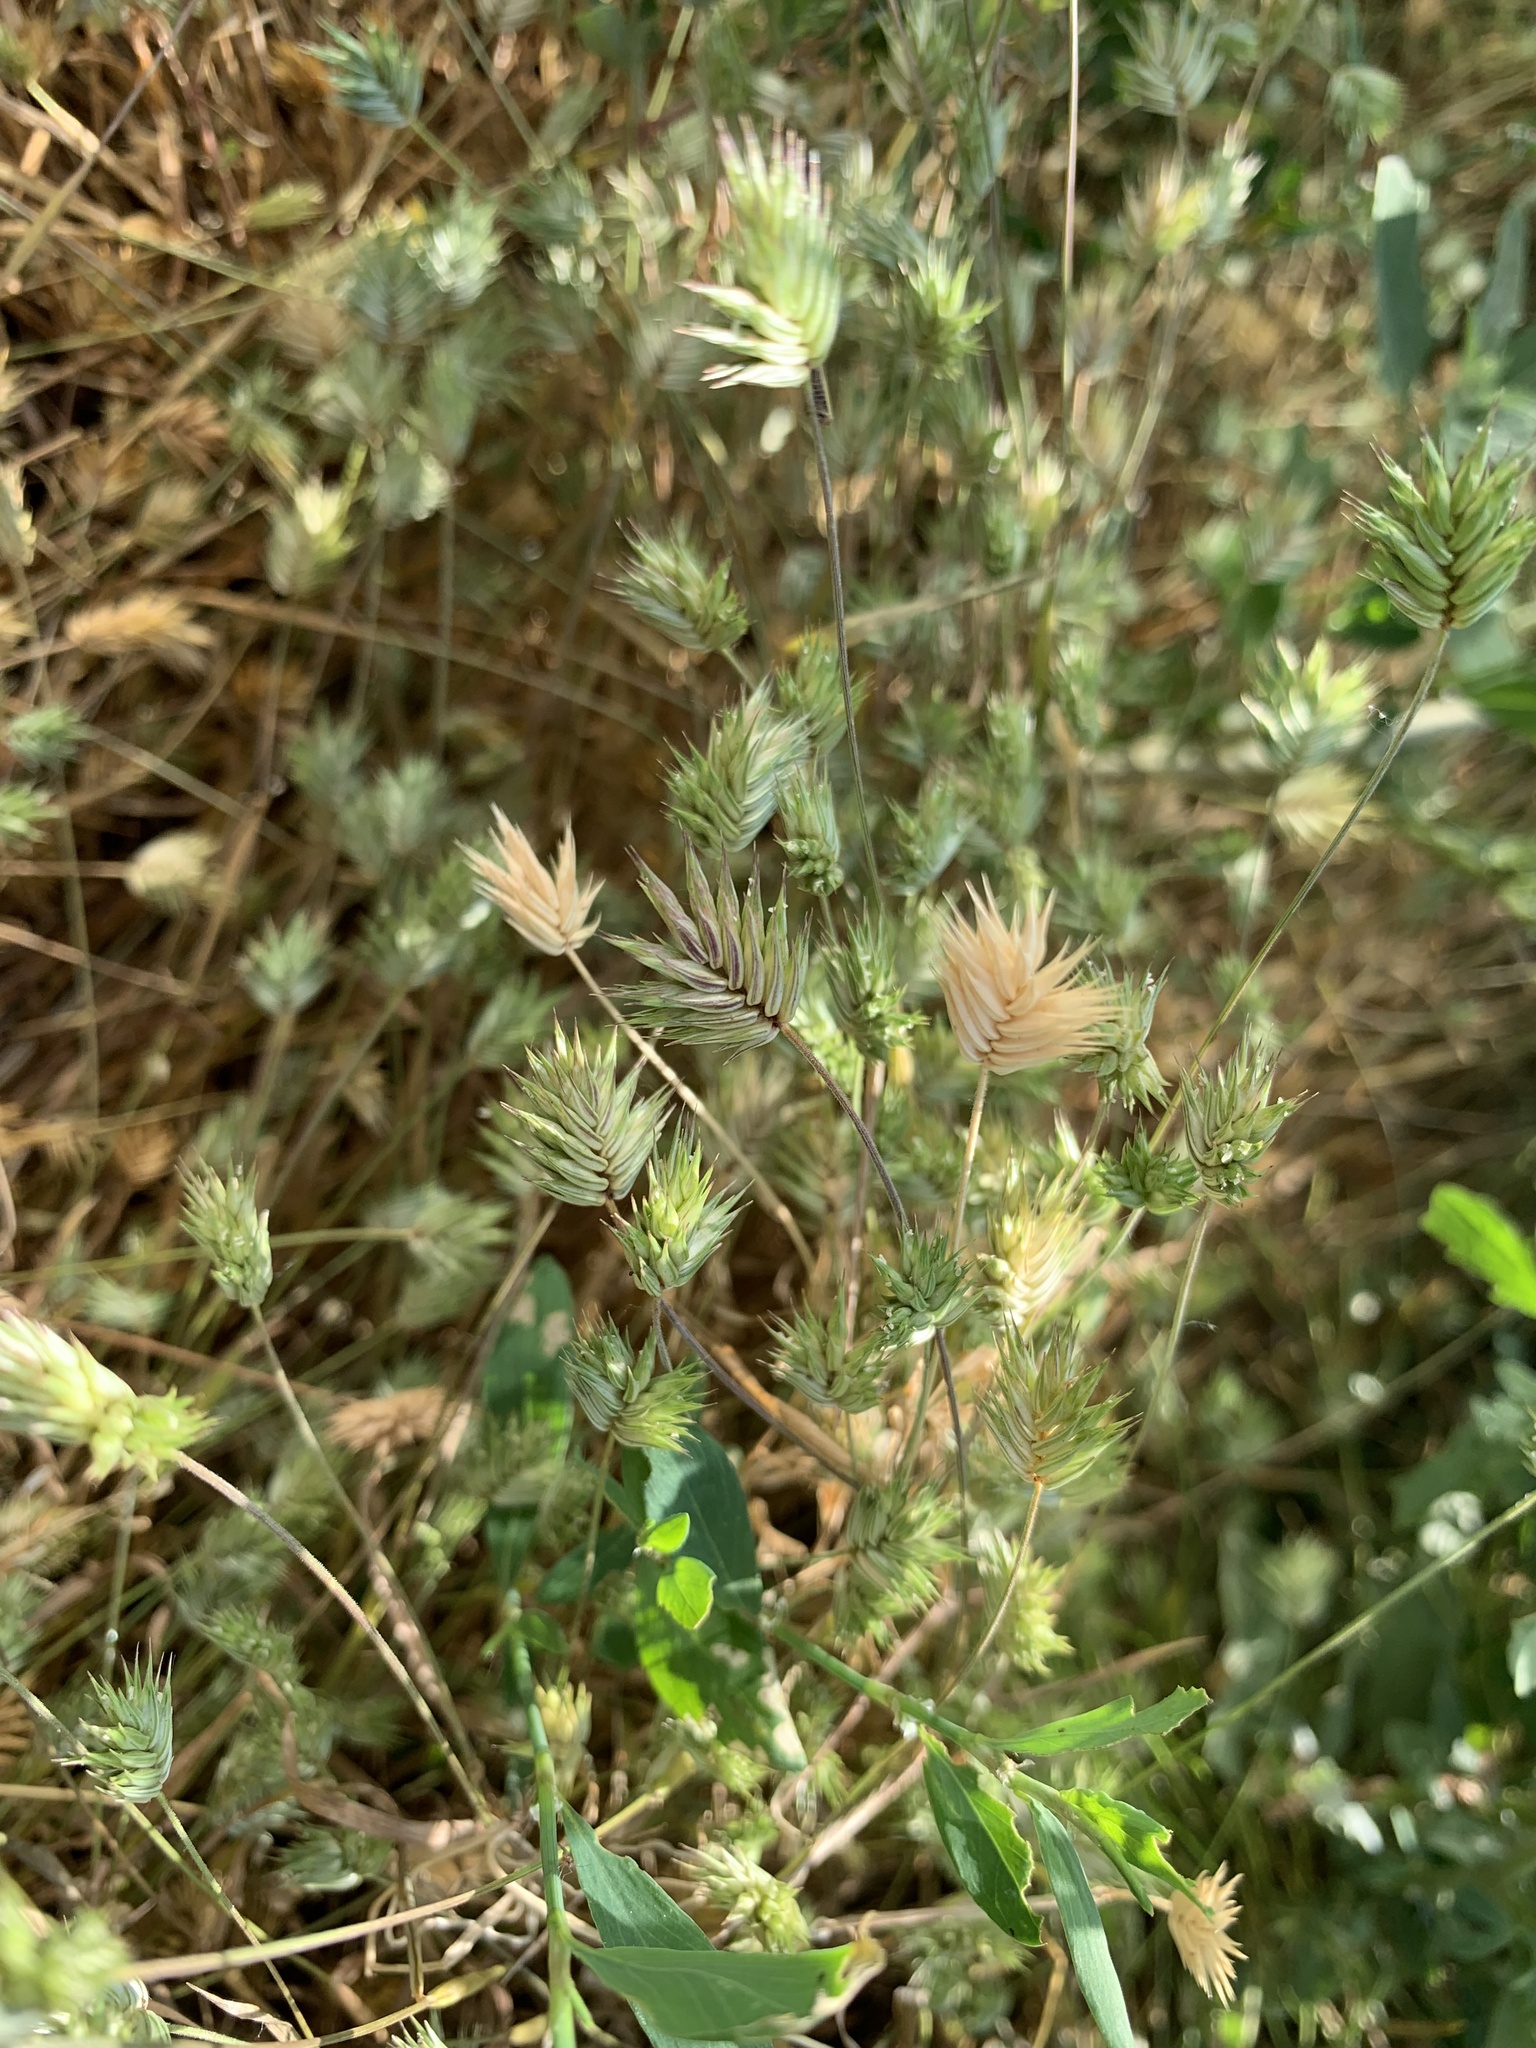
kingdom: Plantae
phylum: Tracheophyta
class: Liliopsida
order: Poales
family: Poaceae
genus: Eremopyrum
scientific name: Eremopyrum triticeum
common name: Annual wheatgrass
